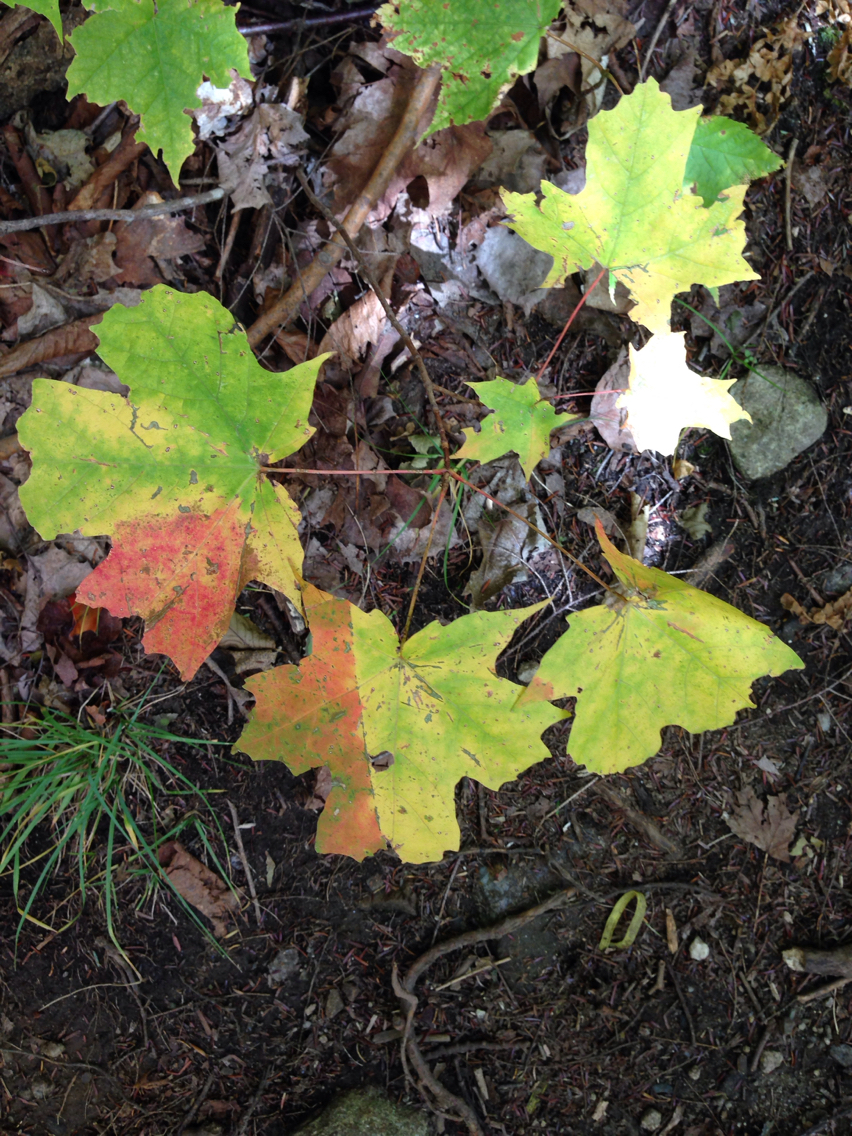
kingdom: Plantae
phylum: Tracheophyta
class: Magnoliopsida
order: Sapindales
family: Sapindaceae
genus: Acer
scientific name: Acer saccharum
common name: Sugar maple
